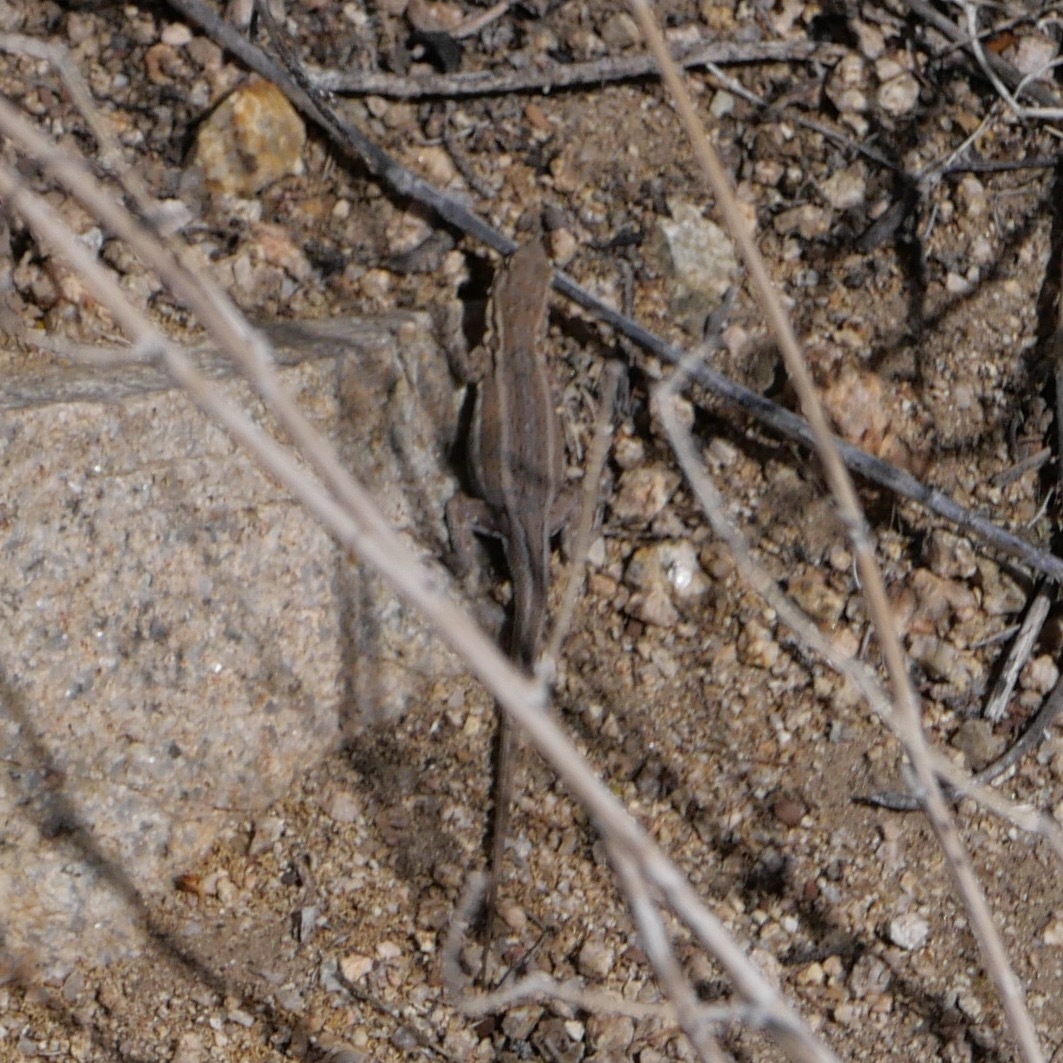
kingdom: Animalia
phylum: Chordata
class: Squamata
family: Phrynosomatidae
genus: Uta
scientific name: Uta stansburiana
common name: Side-blotched lizard
